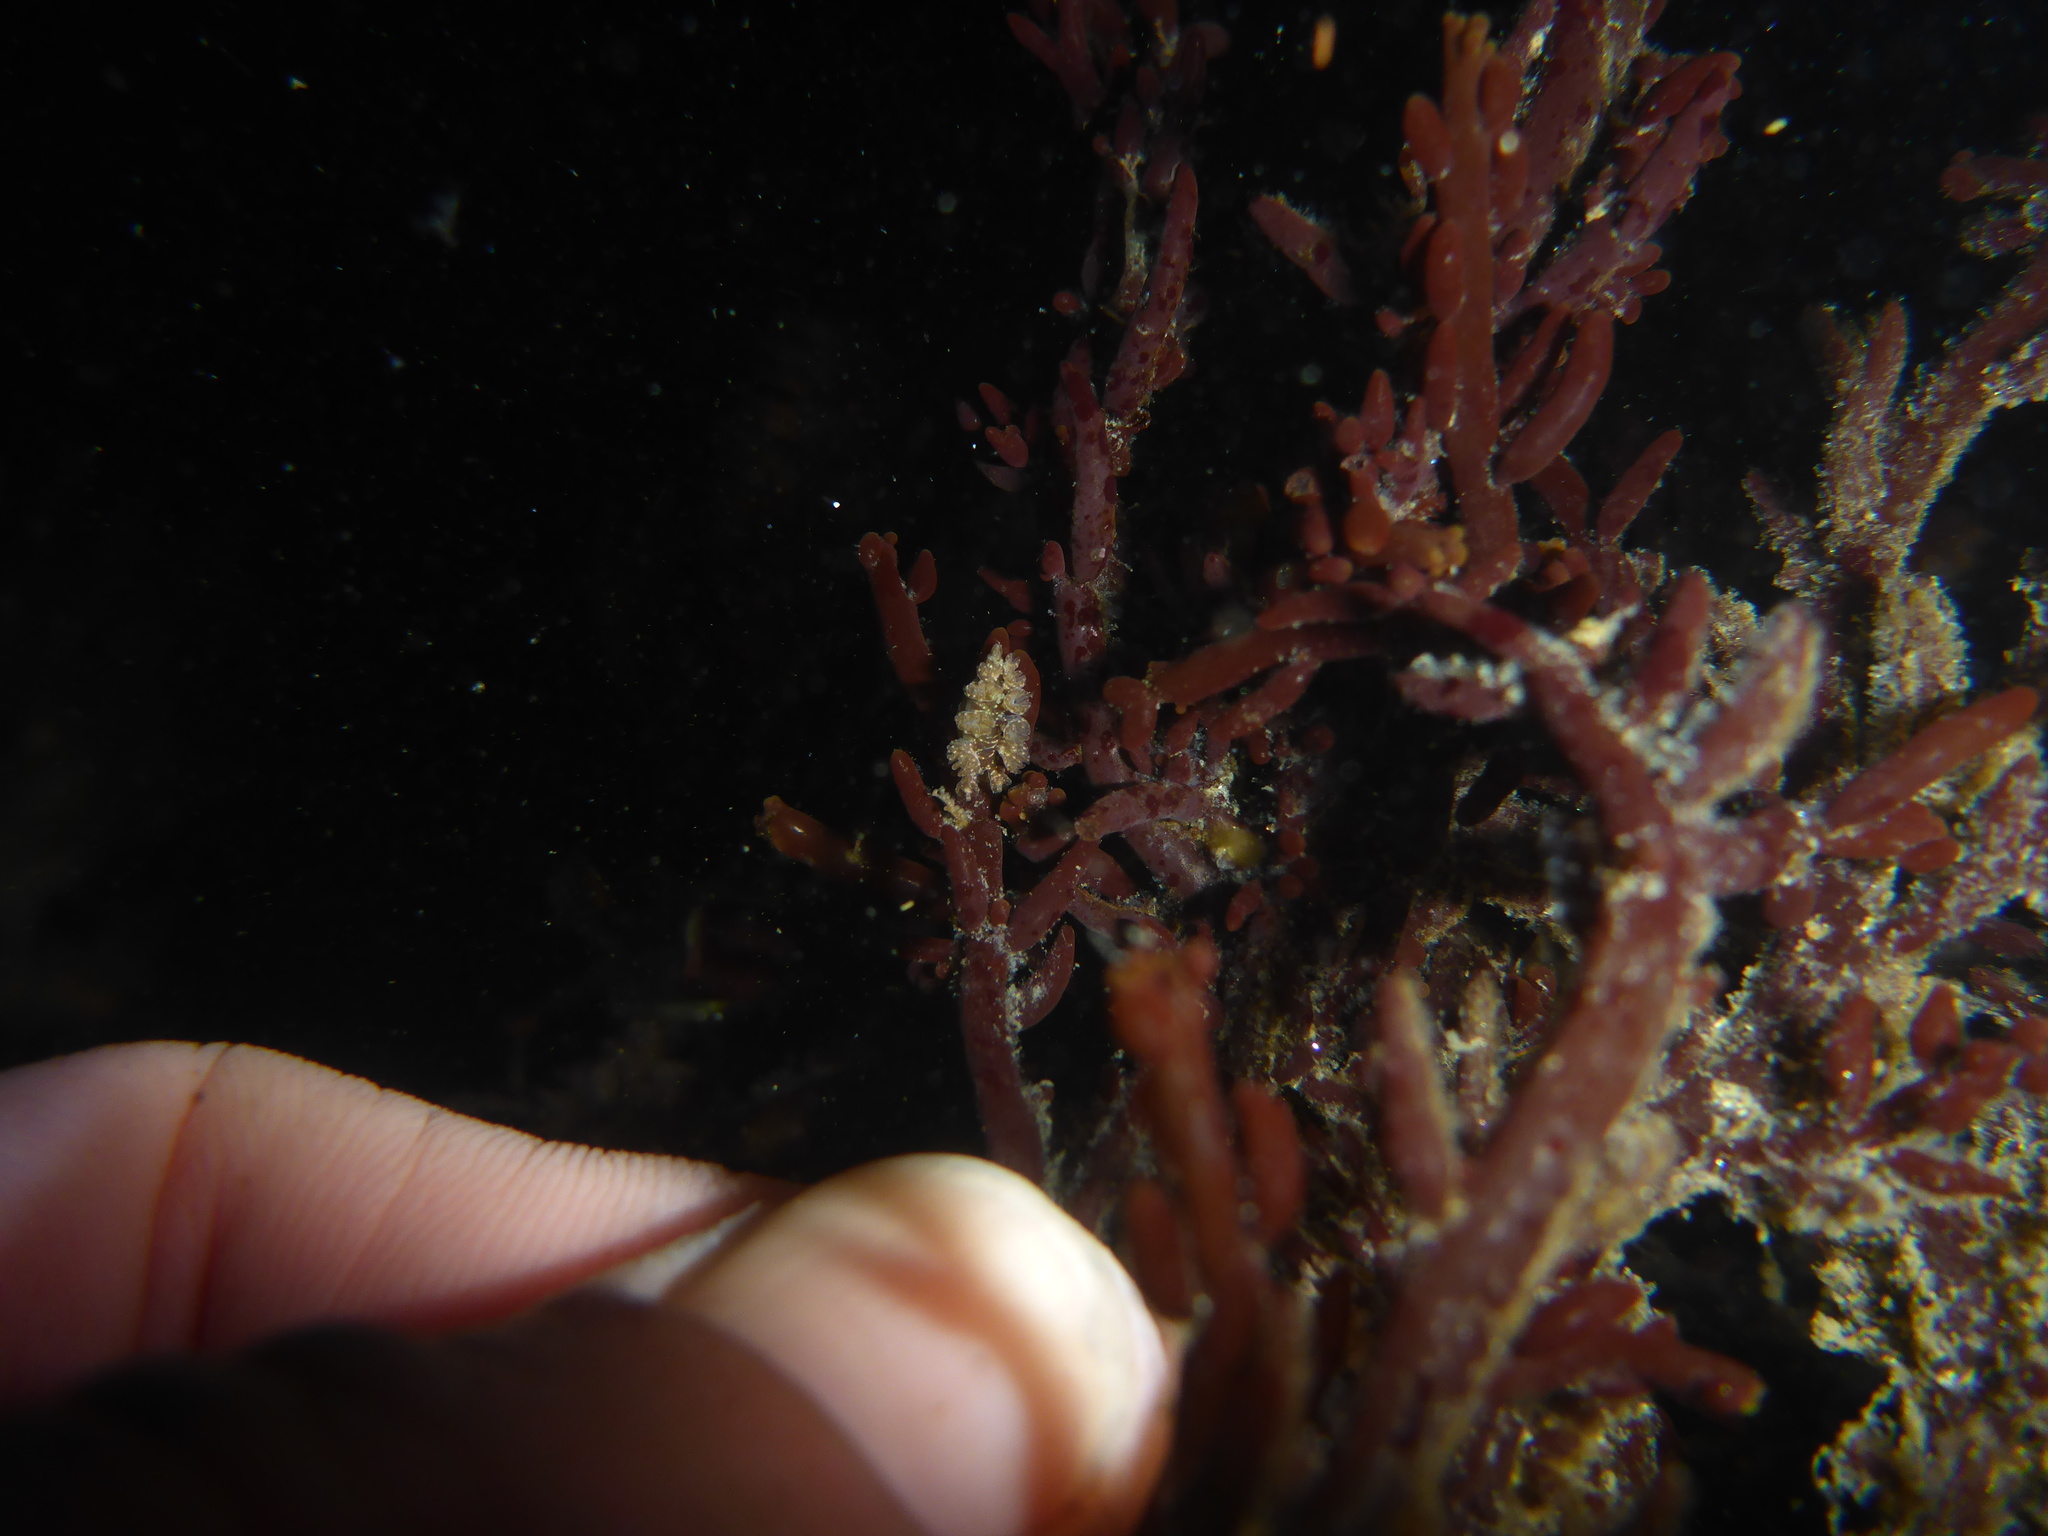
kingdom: Animalia
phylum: Mollusca
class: Gastropoda
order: Nudibranchia
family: Hancockiidae
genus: Hancockia
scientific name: Hancockia californica
